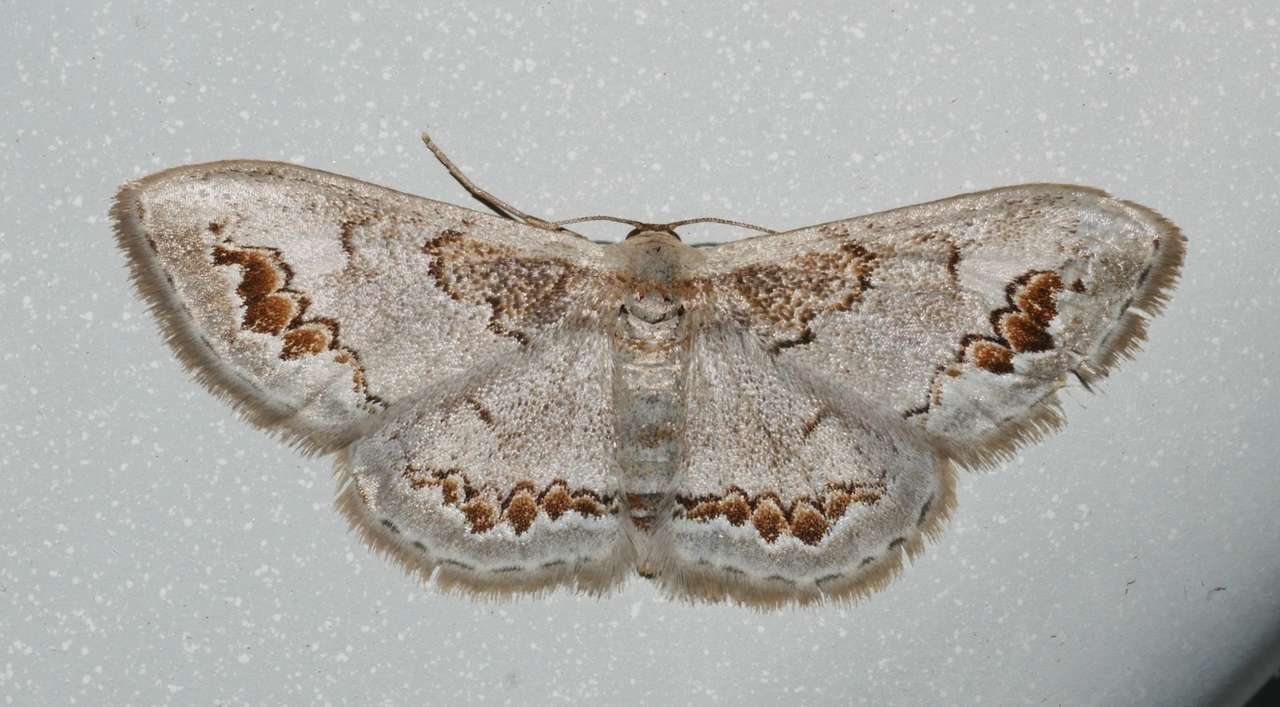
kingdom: Animalia
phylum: Arthropoda
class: Insecta
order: Lepidoptera
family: Geometridae
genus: Dithalama
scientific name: Dithalama cosmospila
